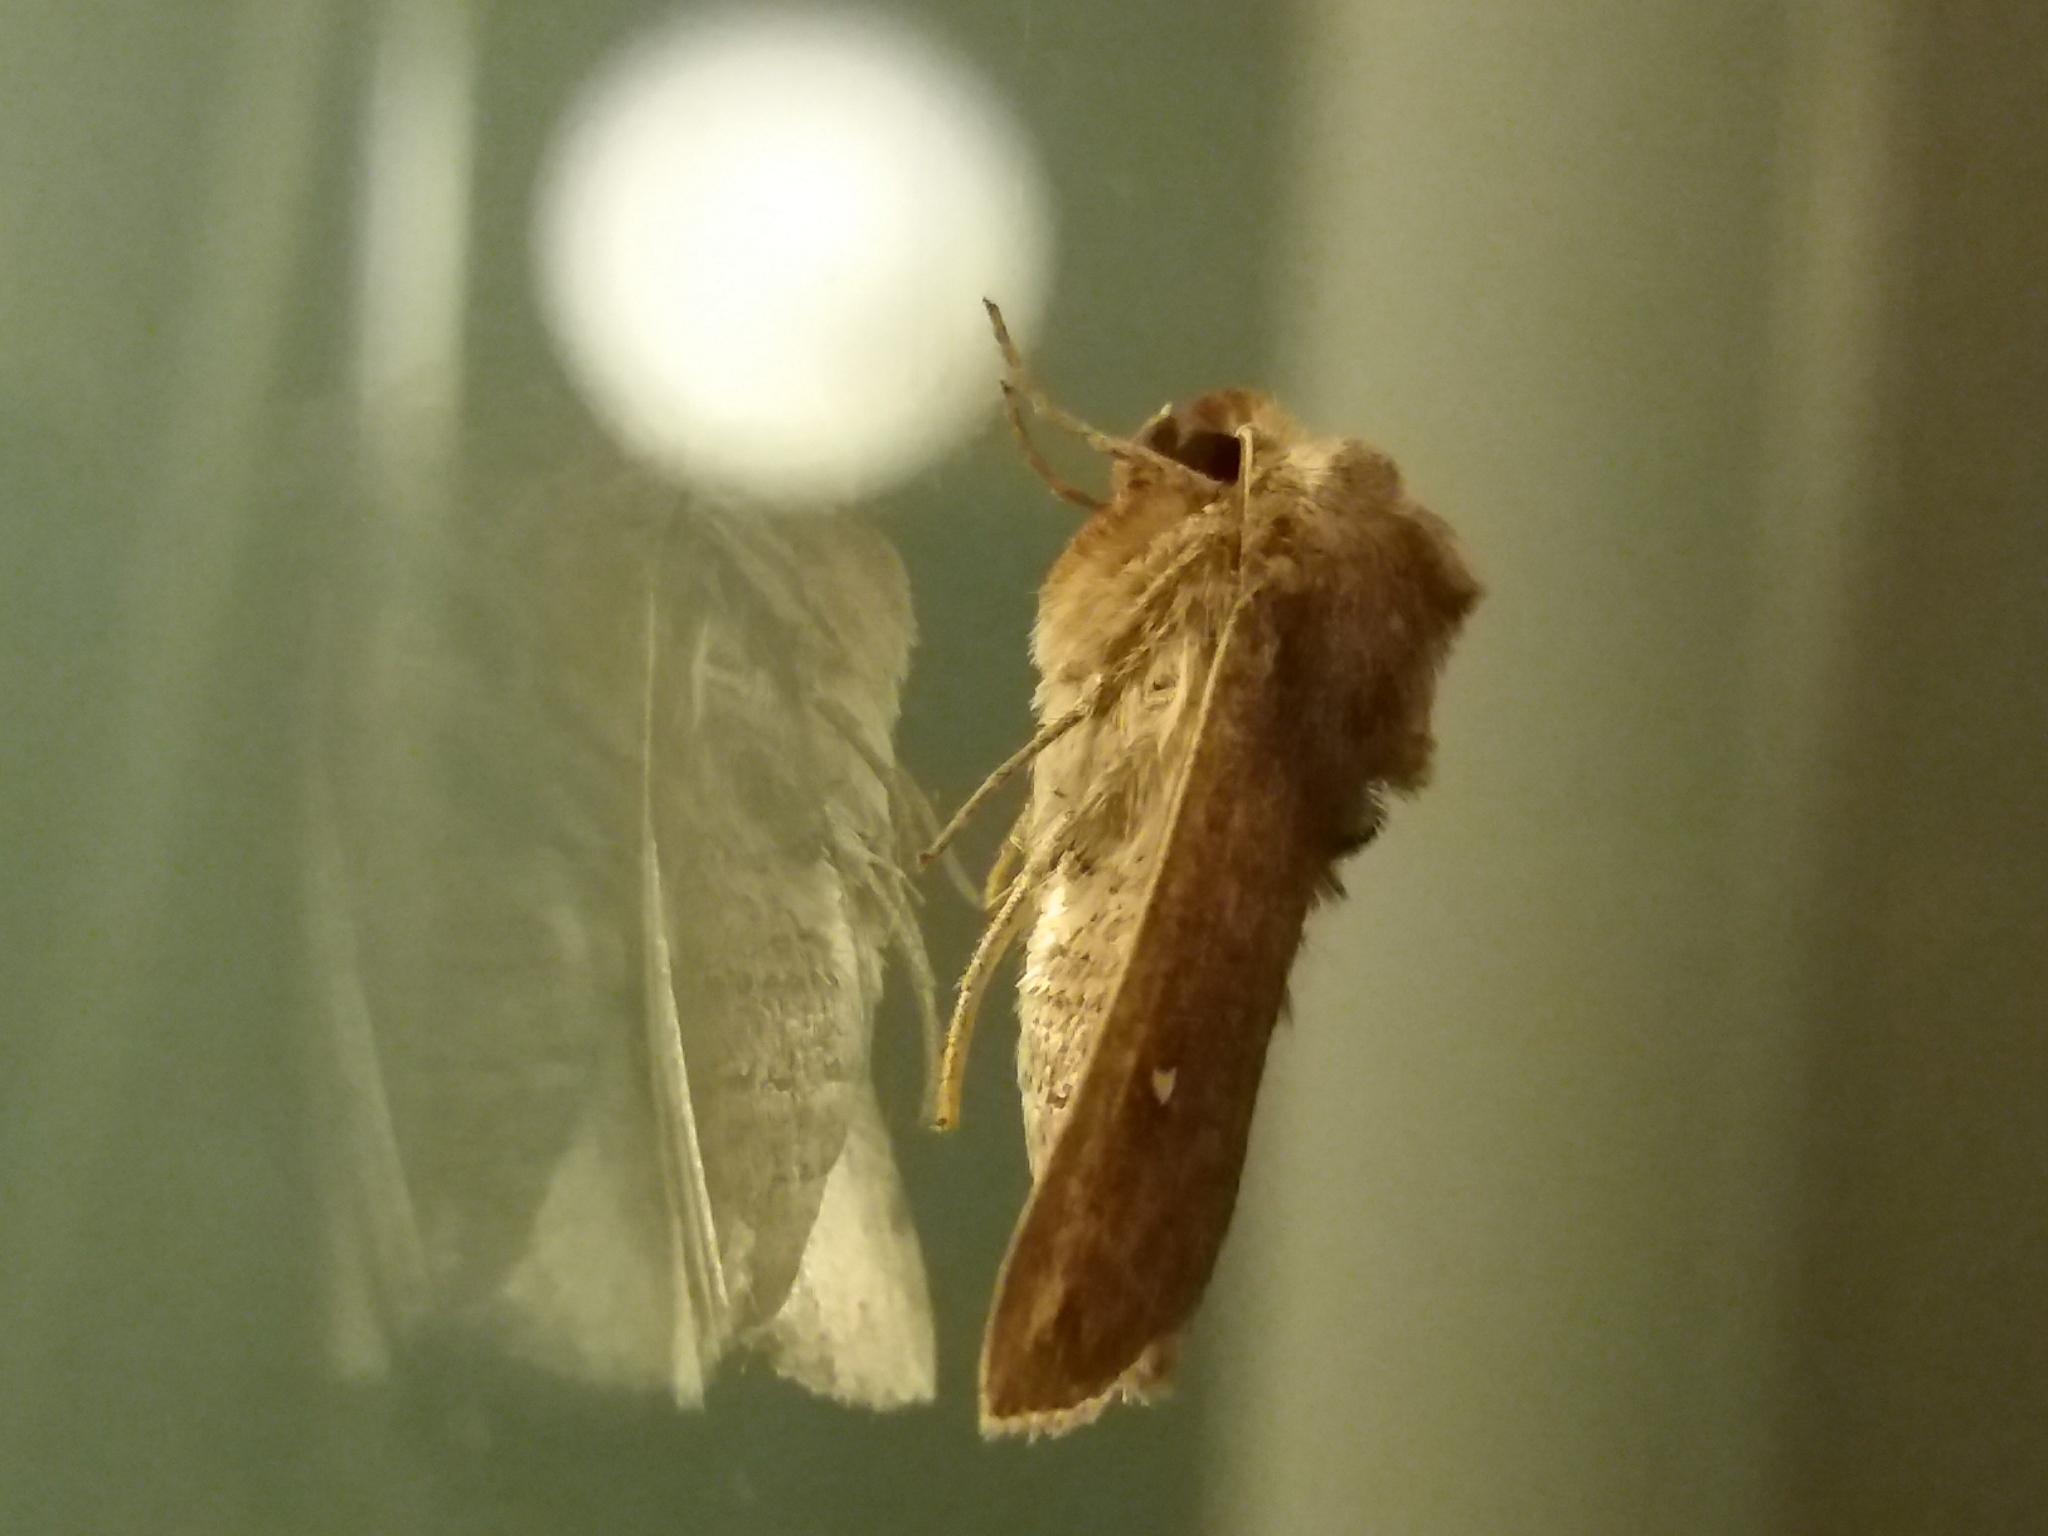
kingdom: Animalia
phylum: Arthropoda
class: Insecta
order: Lepidoptera
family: Noctuidae
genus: Mythimna
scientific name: Mythimna albipuncta
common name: White-point
